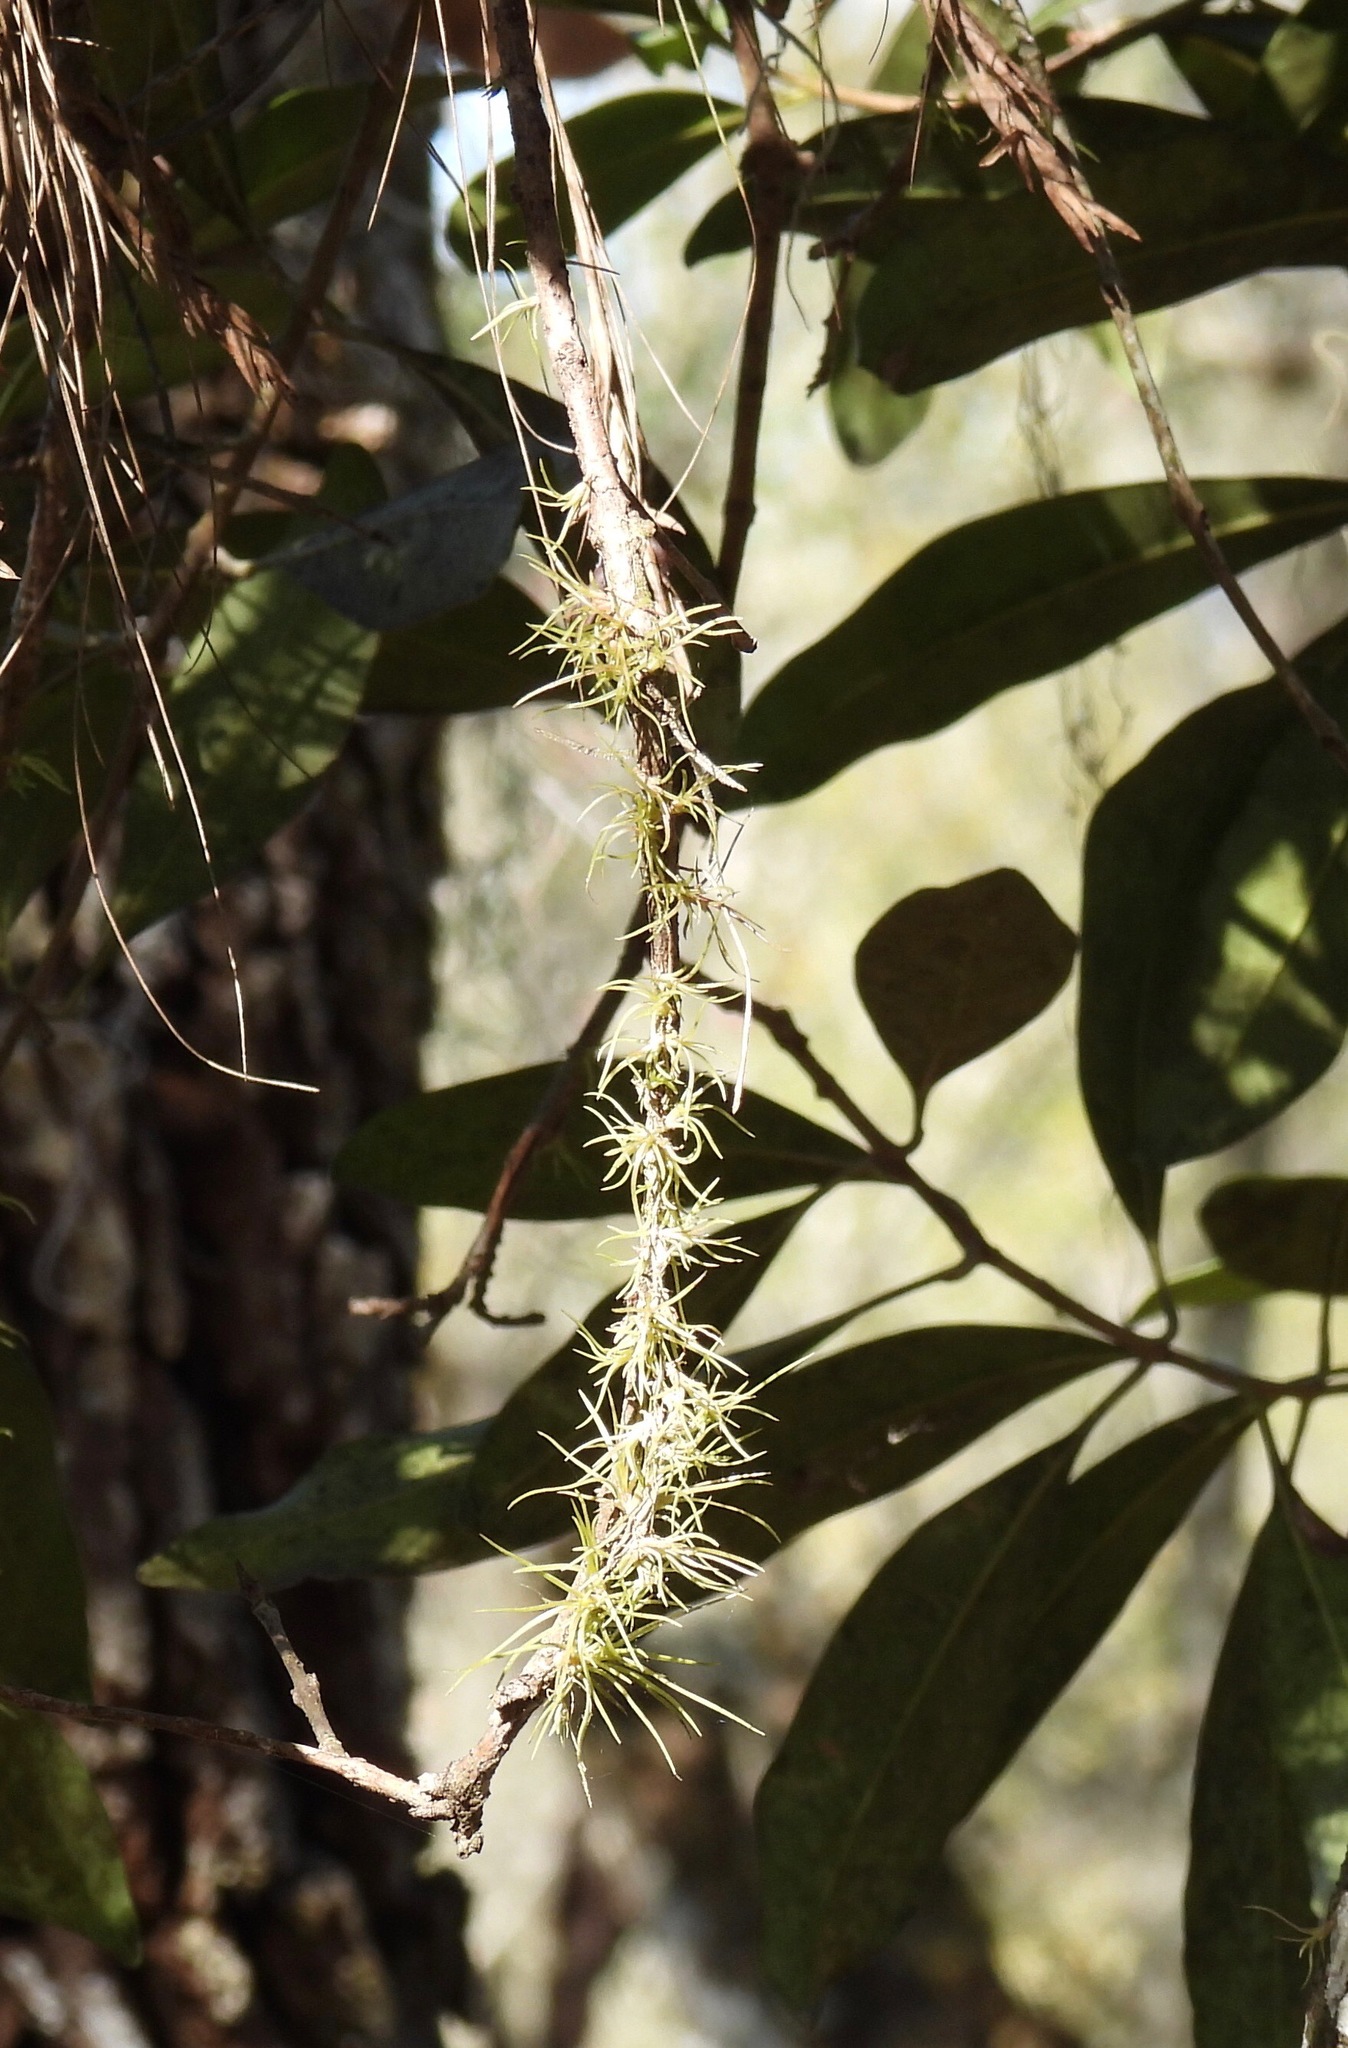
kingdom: Plantae
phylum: Tracheophyta
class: Liliopsida
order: Poales
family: Bromeliaceae
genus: Tillandsia
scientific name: Tillandsia usneoides
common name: Spanish moss
